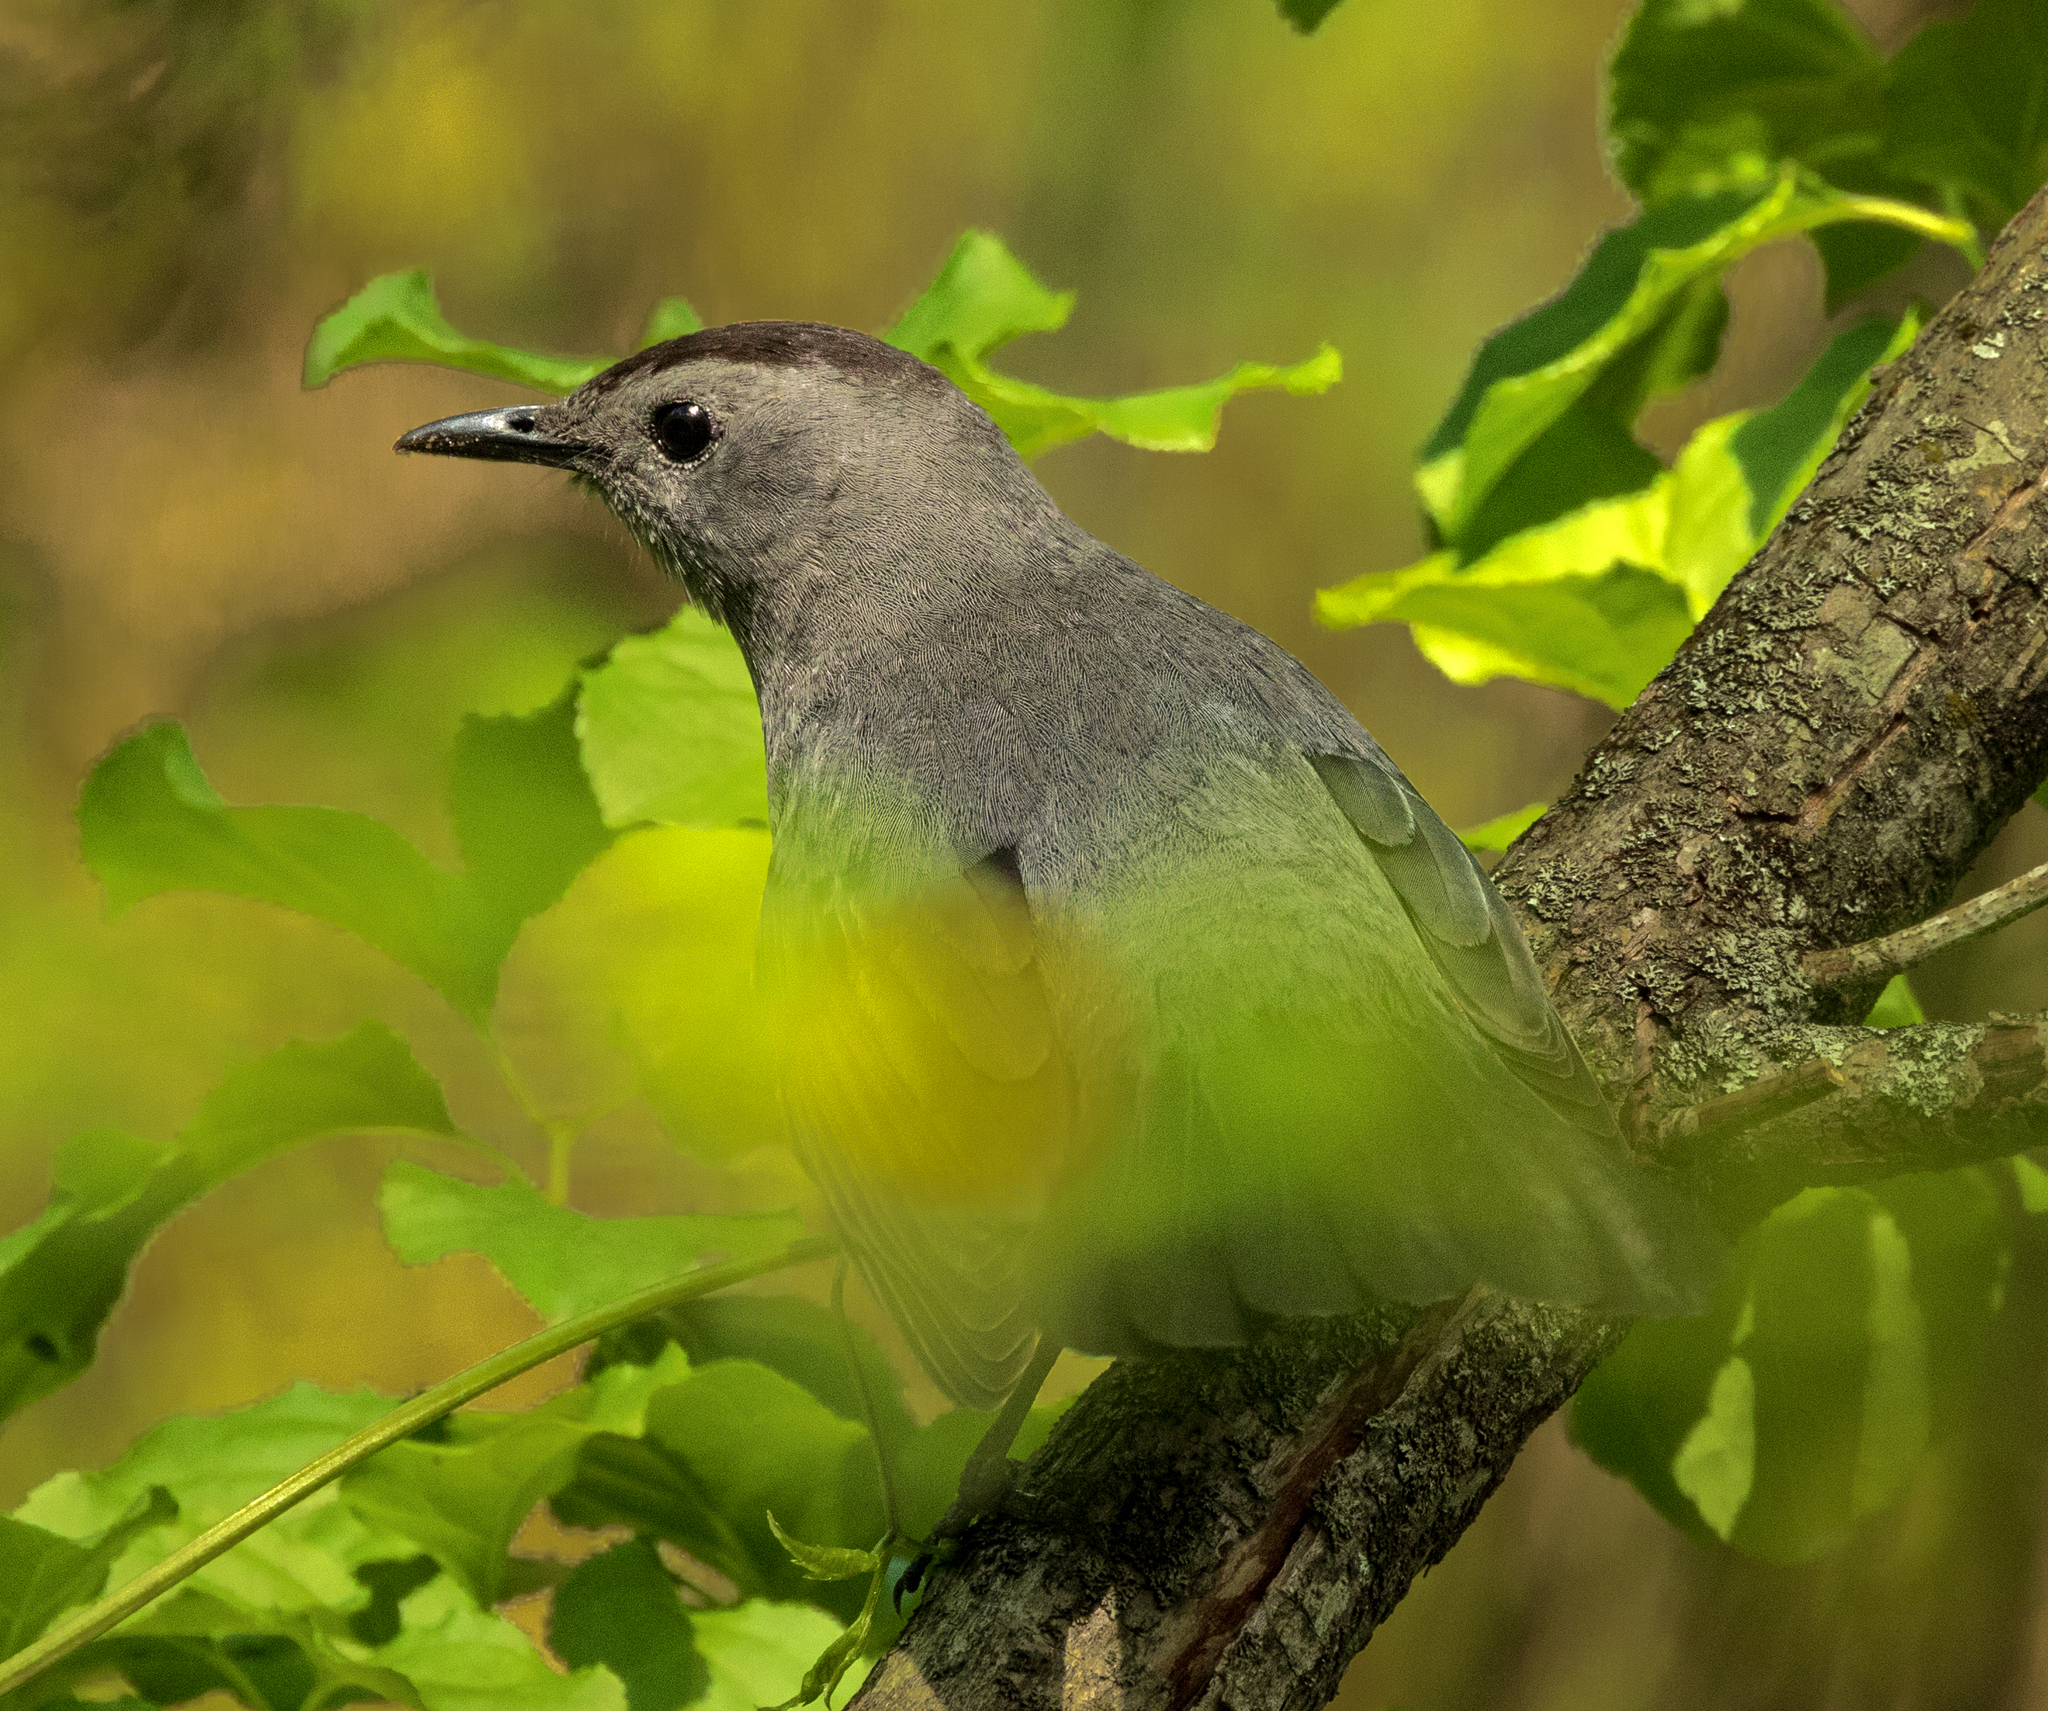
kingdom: Animalia
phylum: Chordata
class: Aves
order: Passeriformes
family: Mimidae
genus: Dumetella
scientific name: Dumetella carolinensis
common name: Gray catbird
